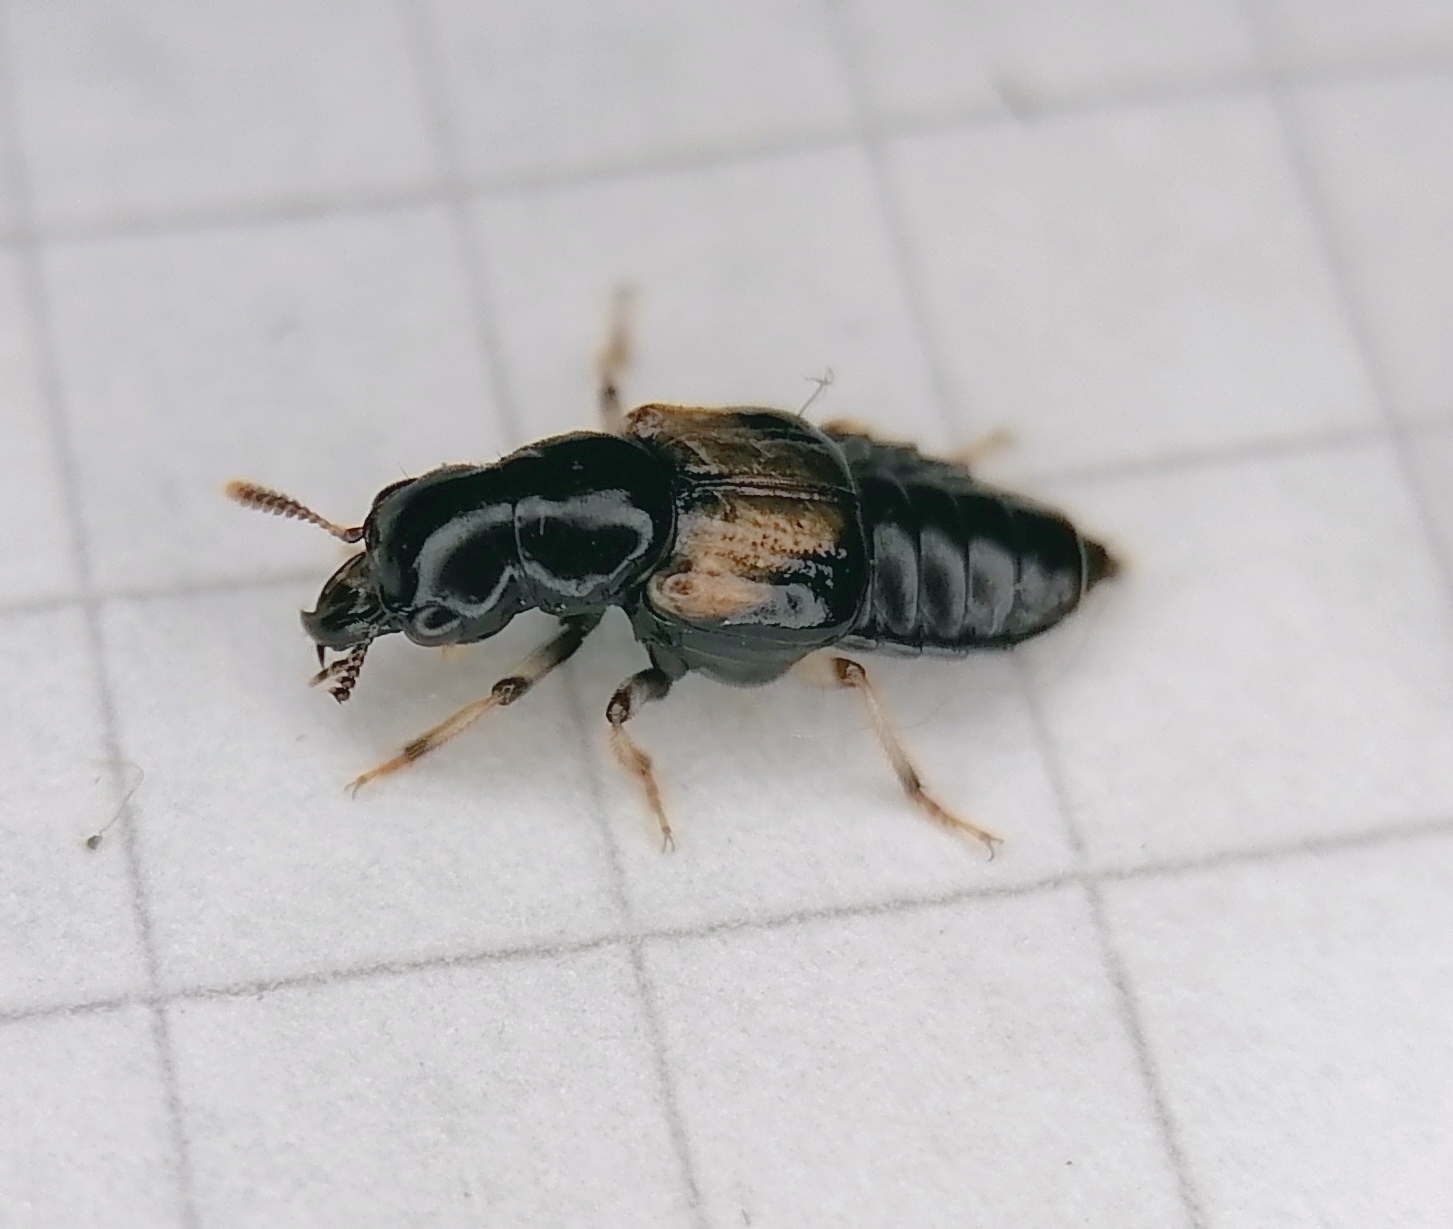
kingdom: Animalia
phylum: Arthropoda
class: Insecta
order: Coleoptera
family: Staphylinidae
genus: Oxyporus
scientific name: Oxyporus maxillosus
